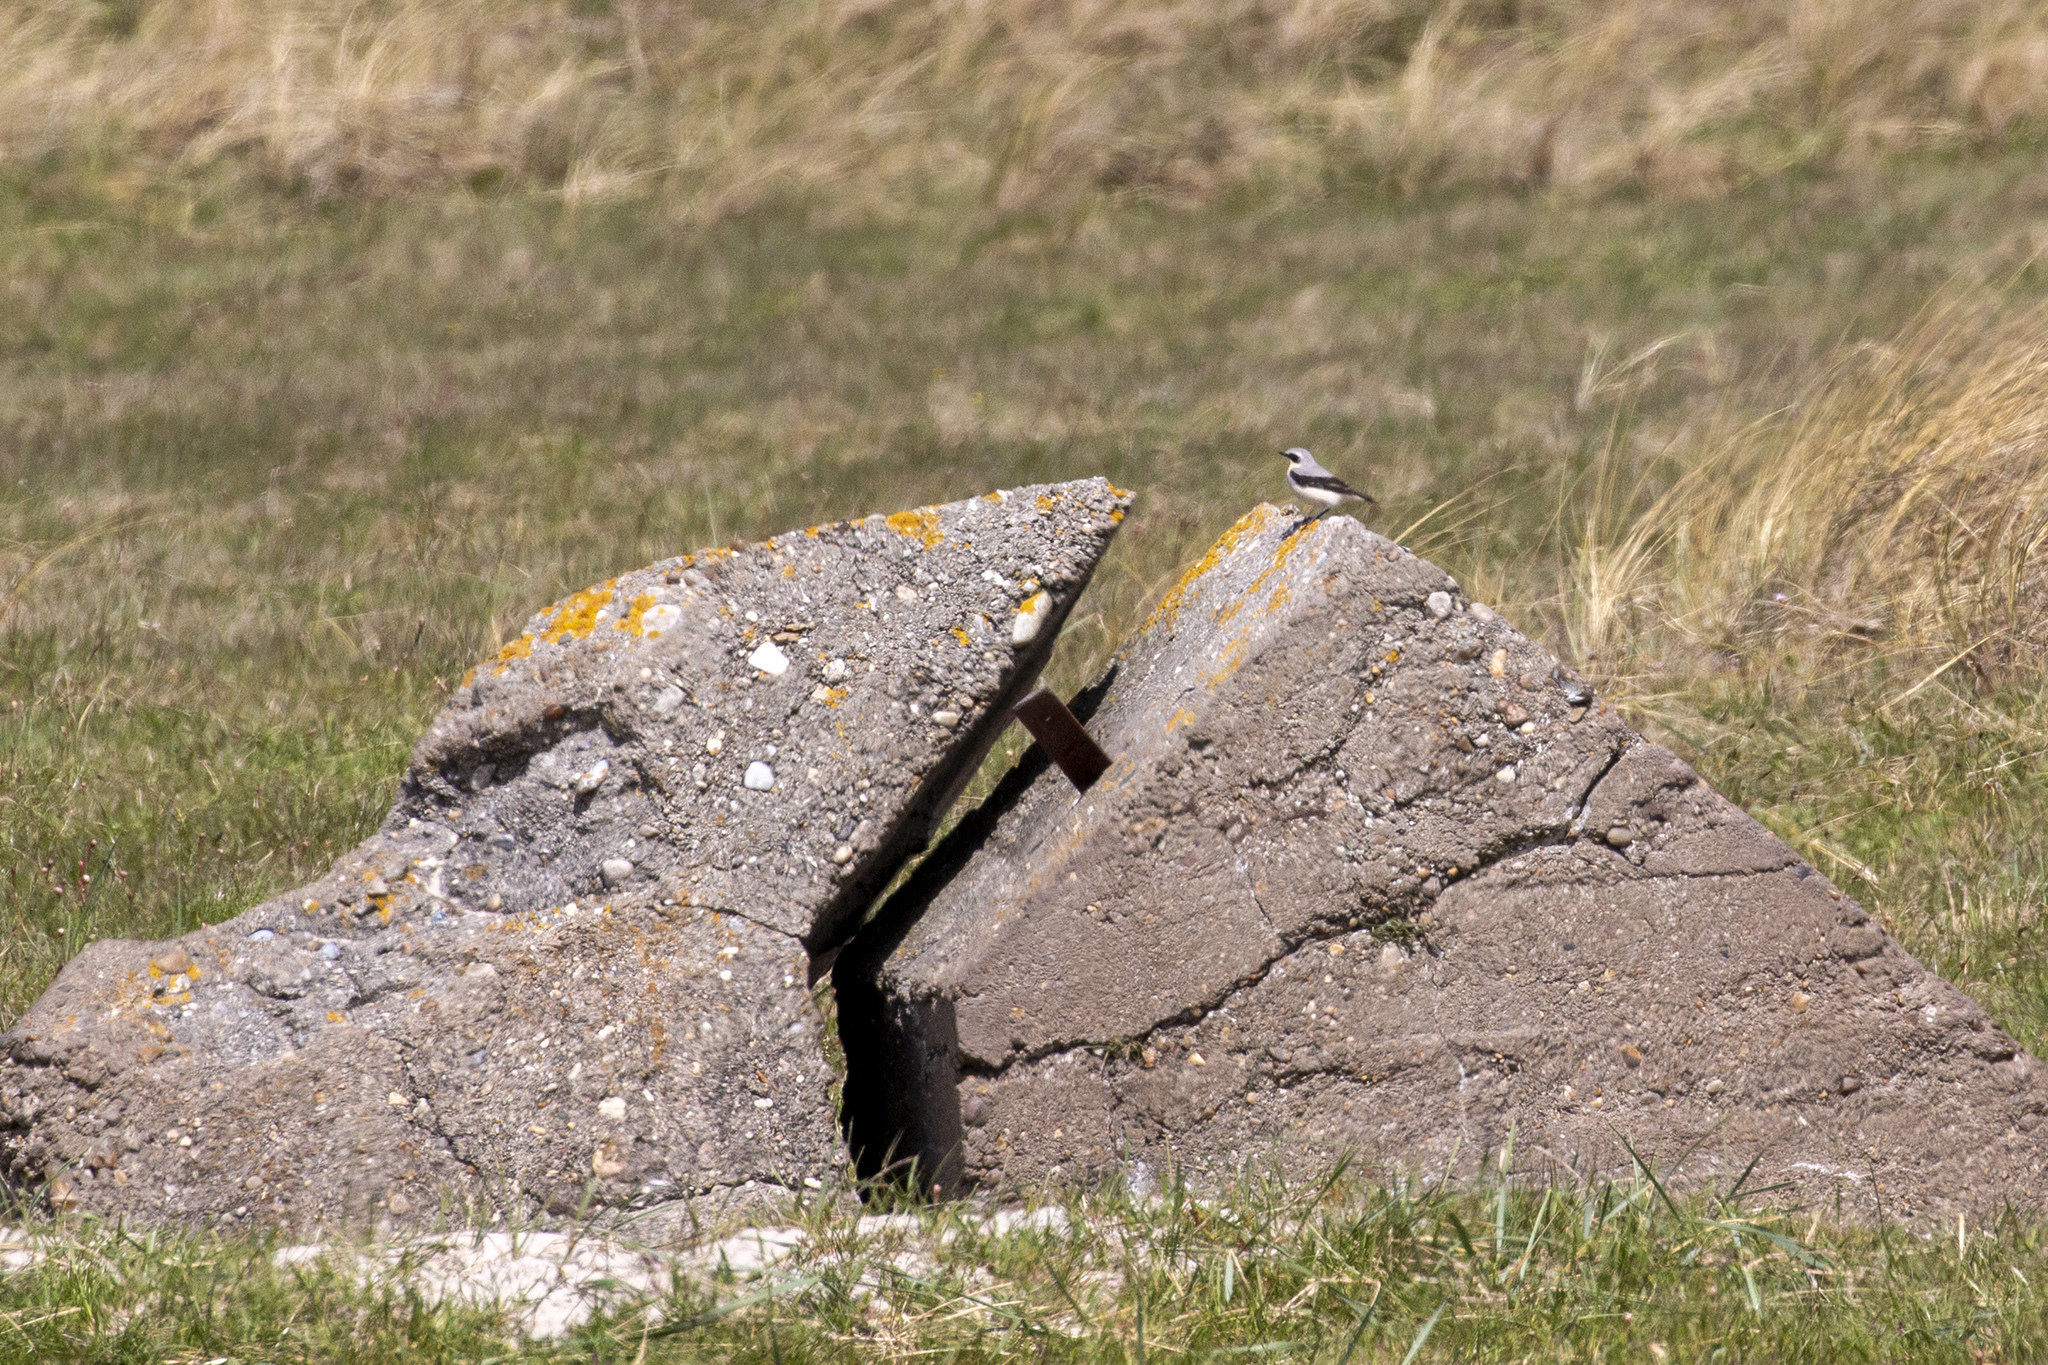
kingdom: Animalia
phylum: Chordata
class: Aves
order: Passeriformes
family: Muscicapidae
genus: Oenanthe
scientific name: Oenanthe oenanthe
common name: Northern wheatear
